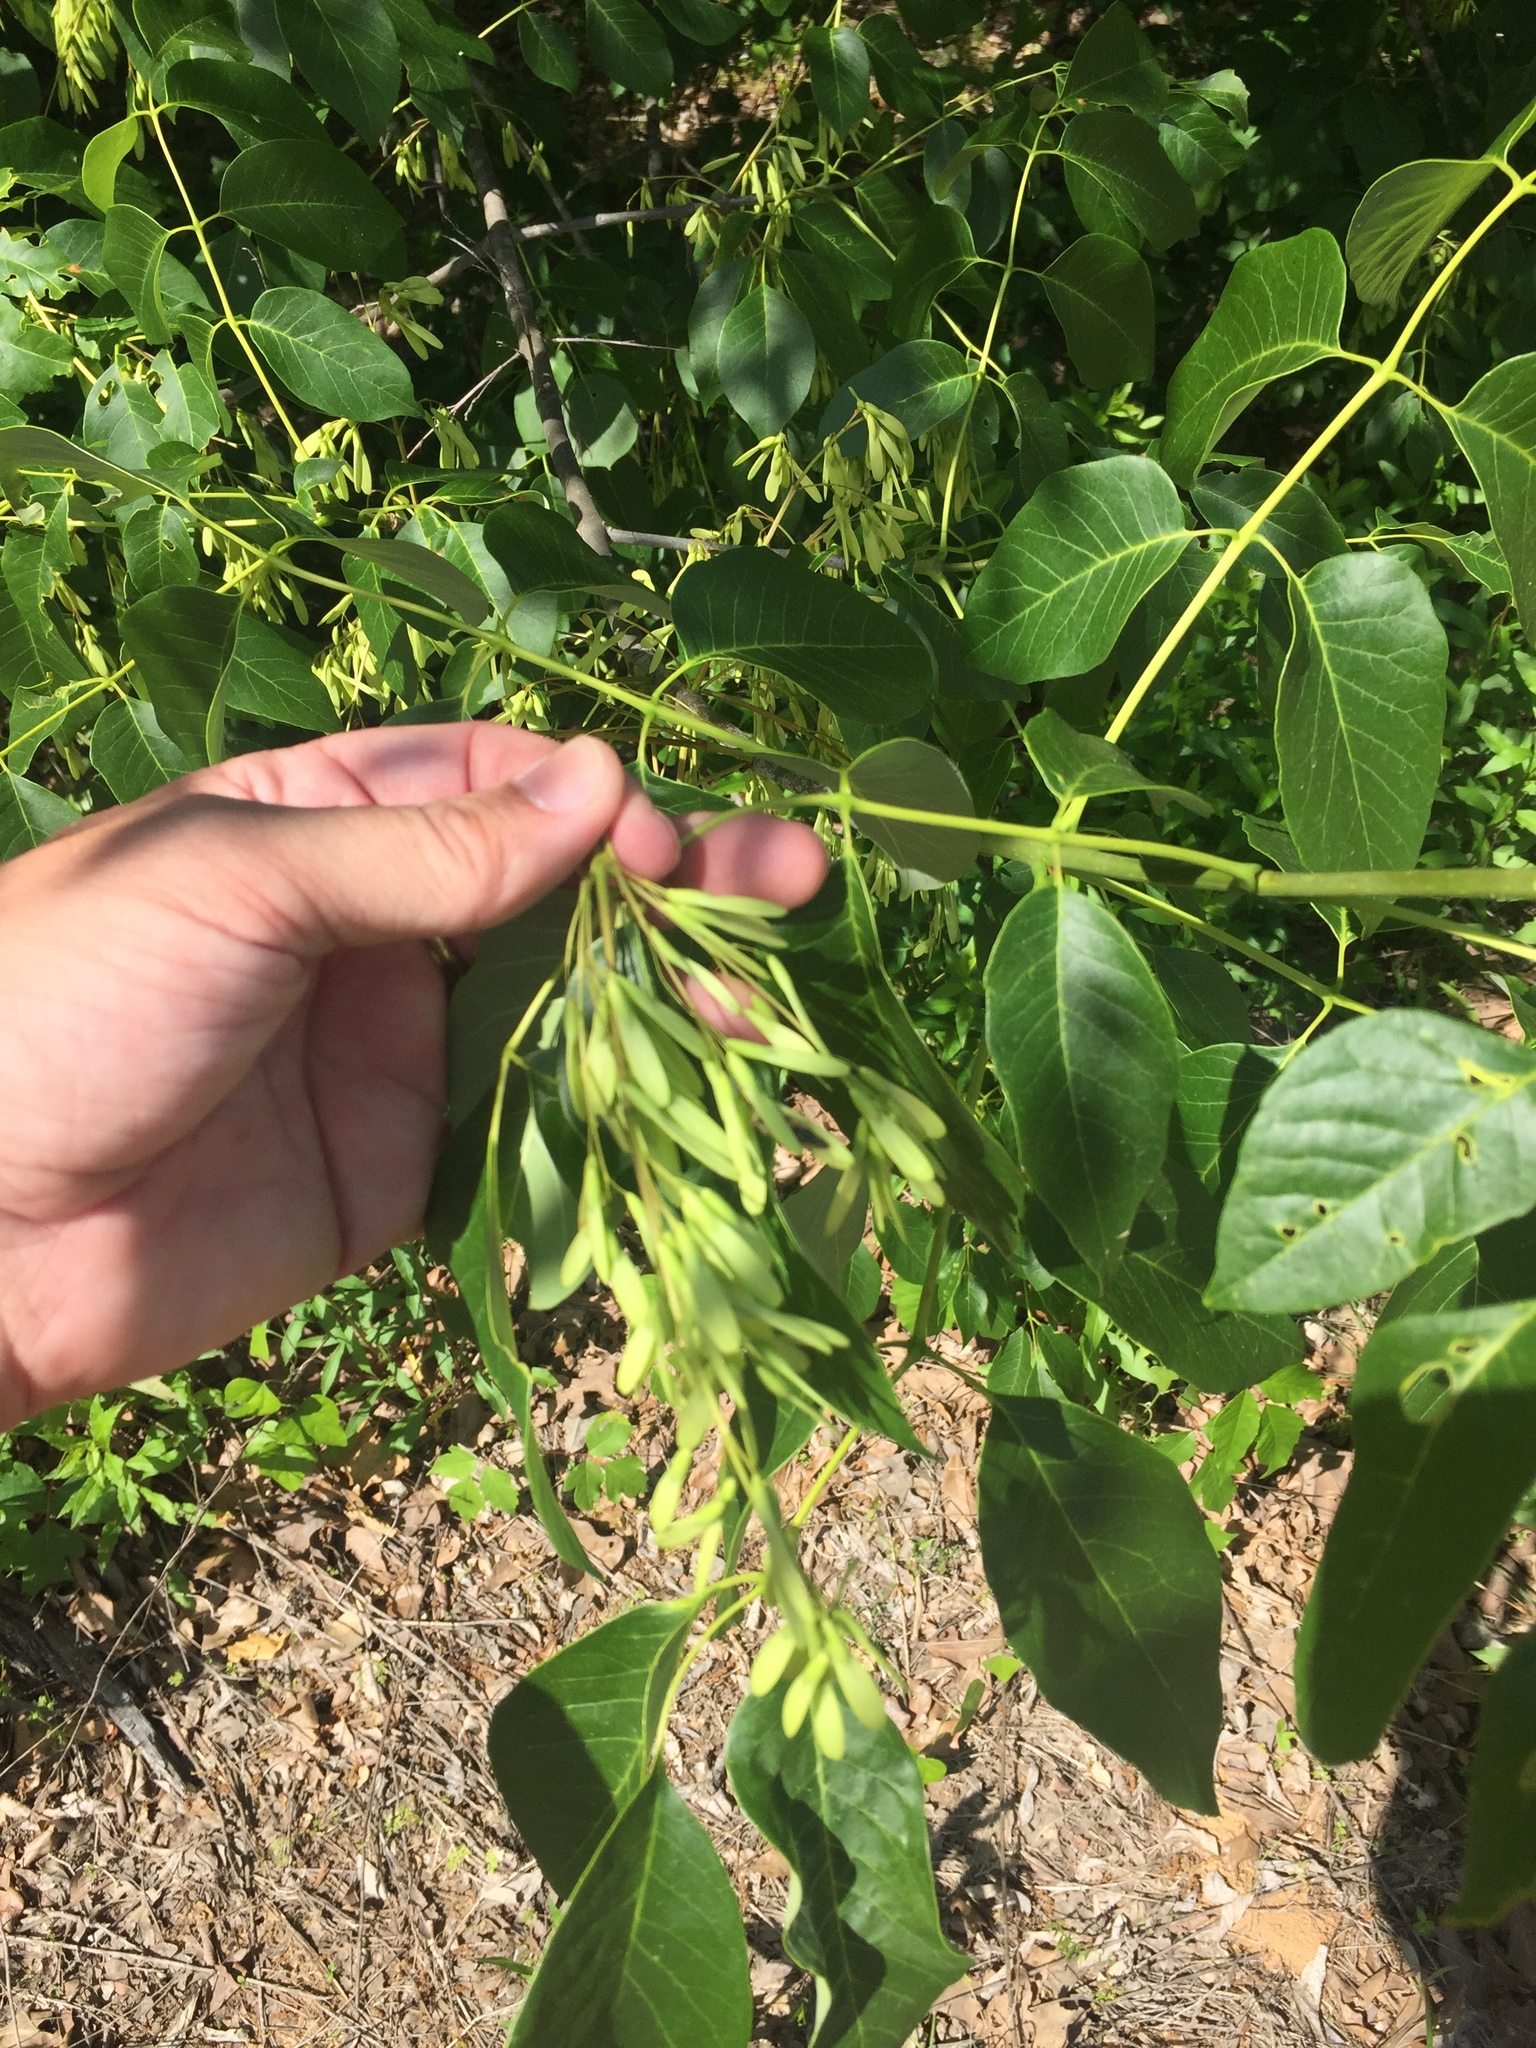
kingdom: Plantae
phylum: Tracheophyta
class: Magnoliopsida
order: Lamiales
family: Oleaceae
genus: Fraxinus
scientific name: Fraxinus pennsylvanica
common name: Green ash
